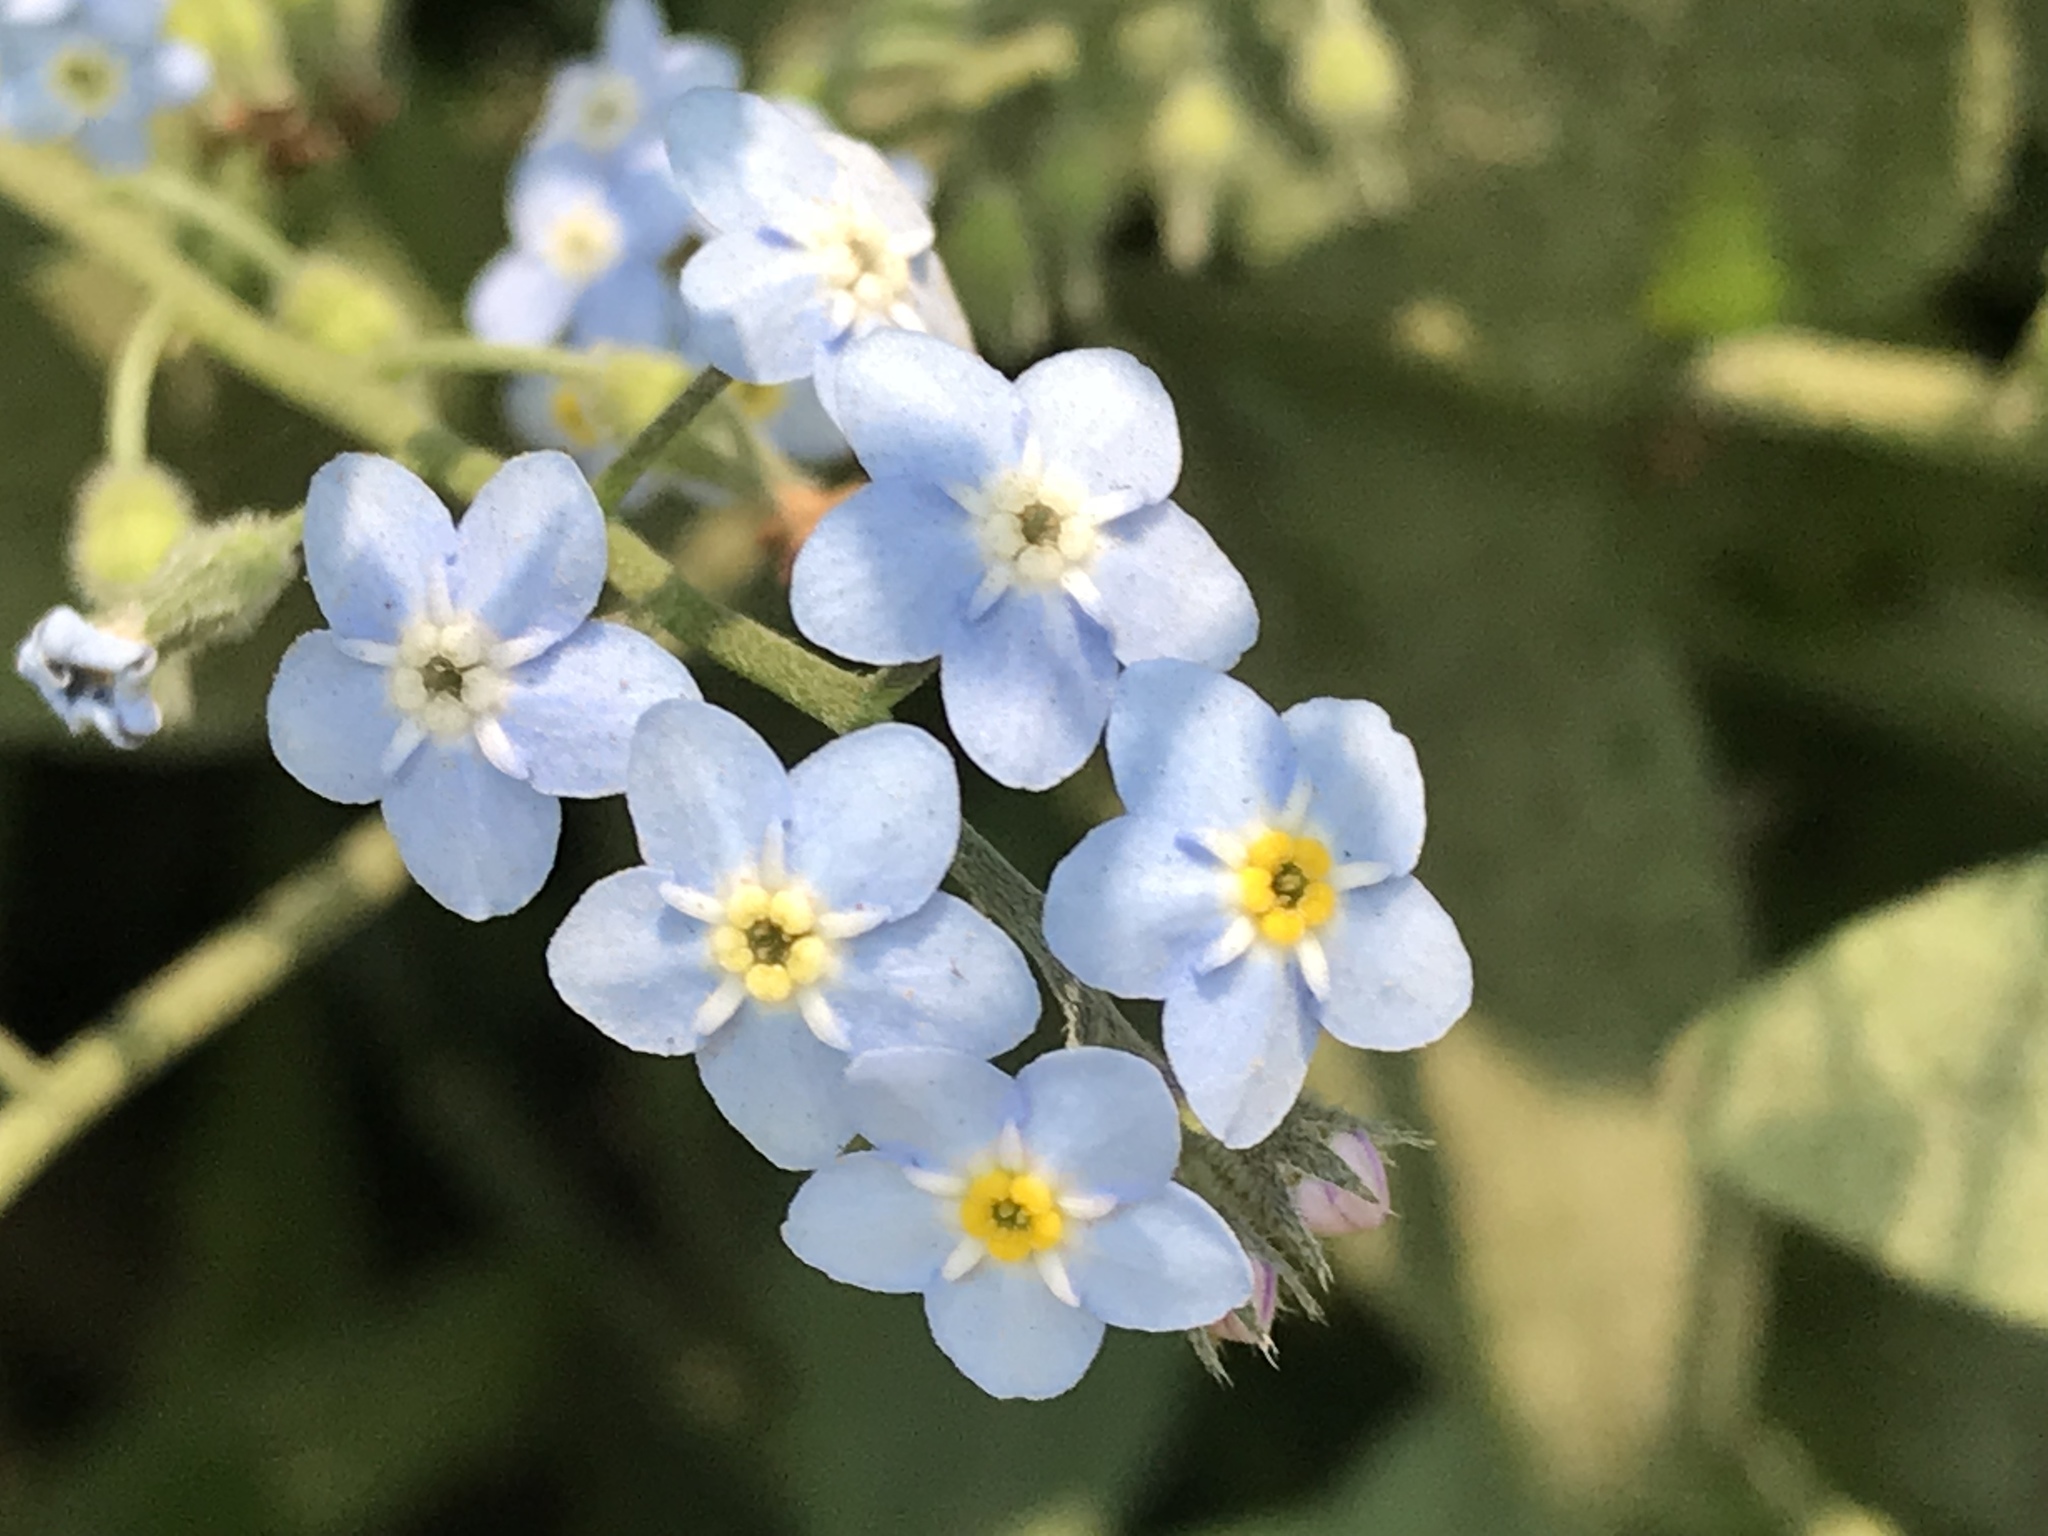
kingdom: Plantae
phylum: Tracheophyta
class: Magnoliopsida
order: Boraginales
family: Boraginaceae
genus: Myosotis
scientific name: Myosotis latifolia
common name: Broadleaf forget-me-not
